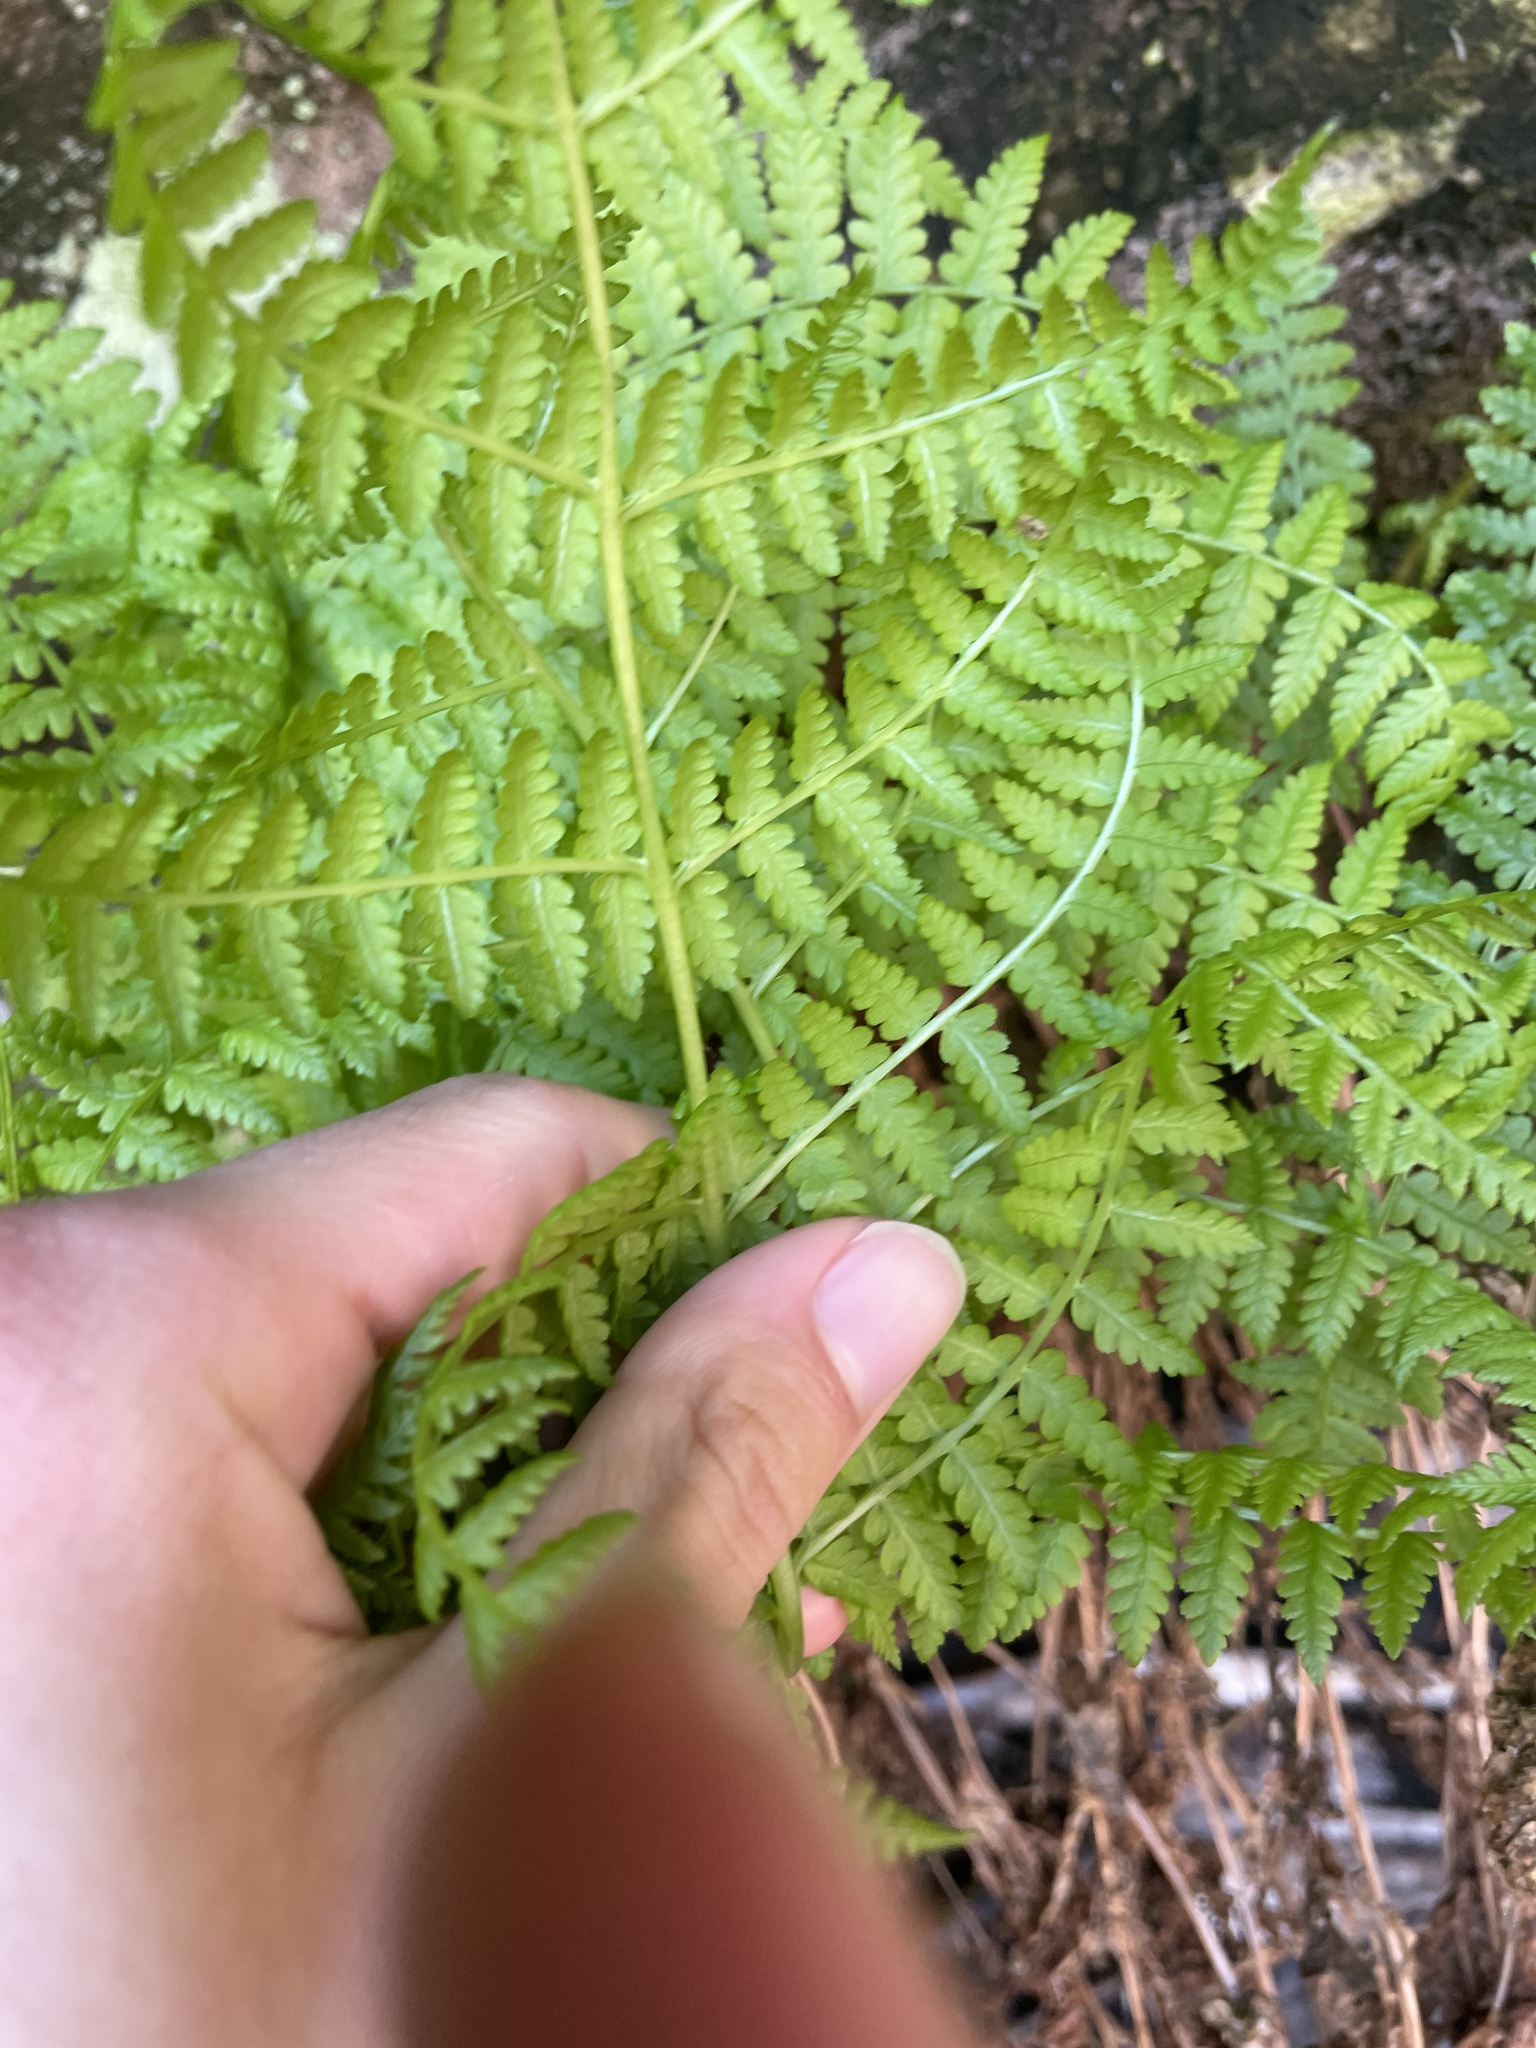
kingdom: Plantae
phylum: Tracheophyta
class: Polypodiopsida
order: Polypodiales
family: Athyriaceae
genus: Athyrium
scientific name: Athyrium filix-femina
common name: Lady fern
